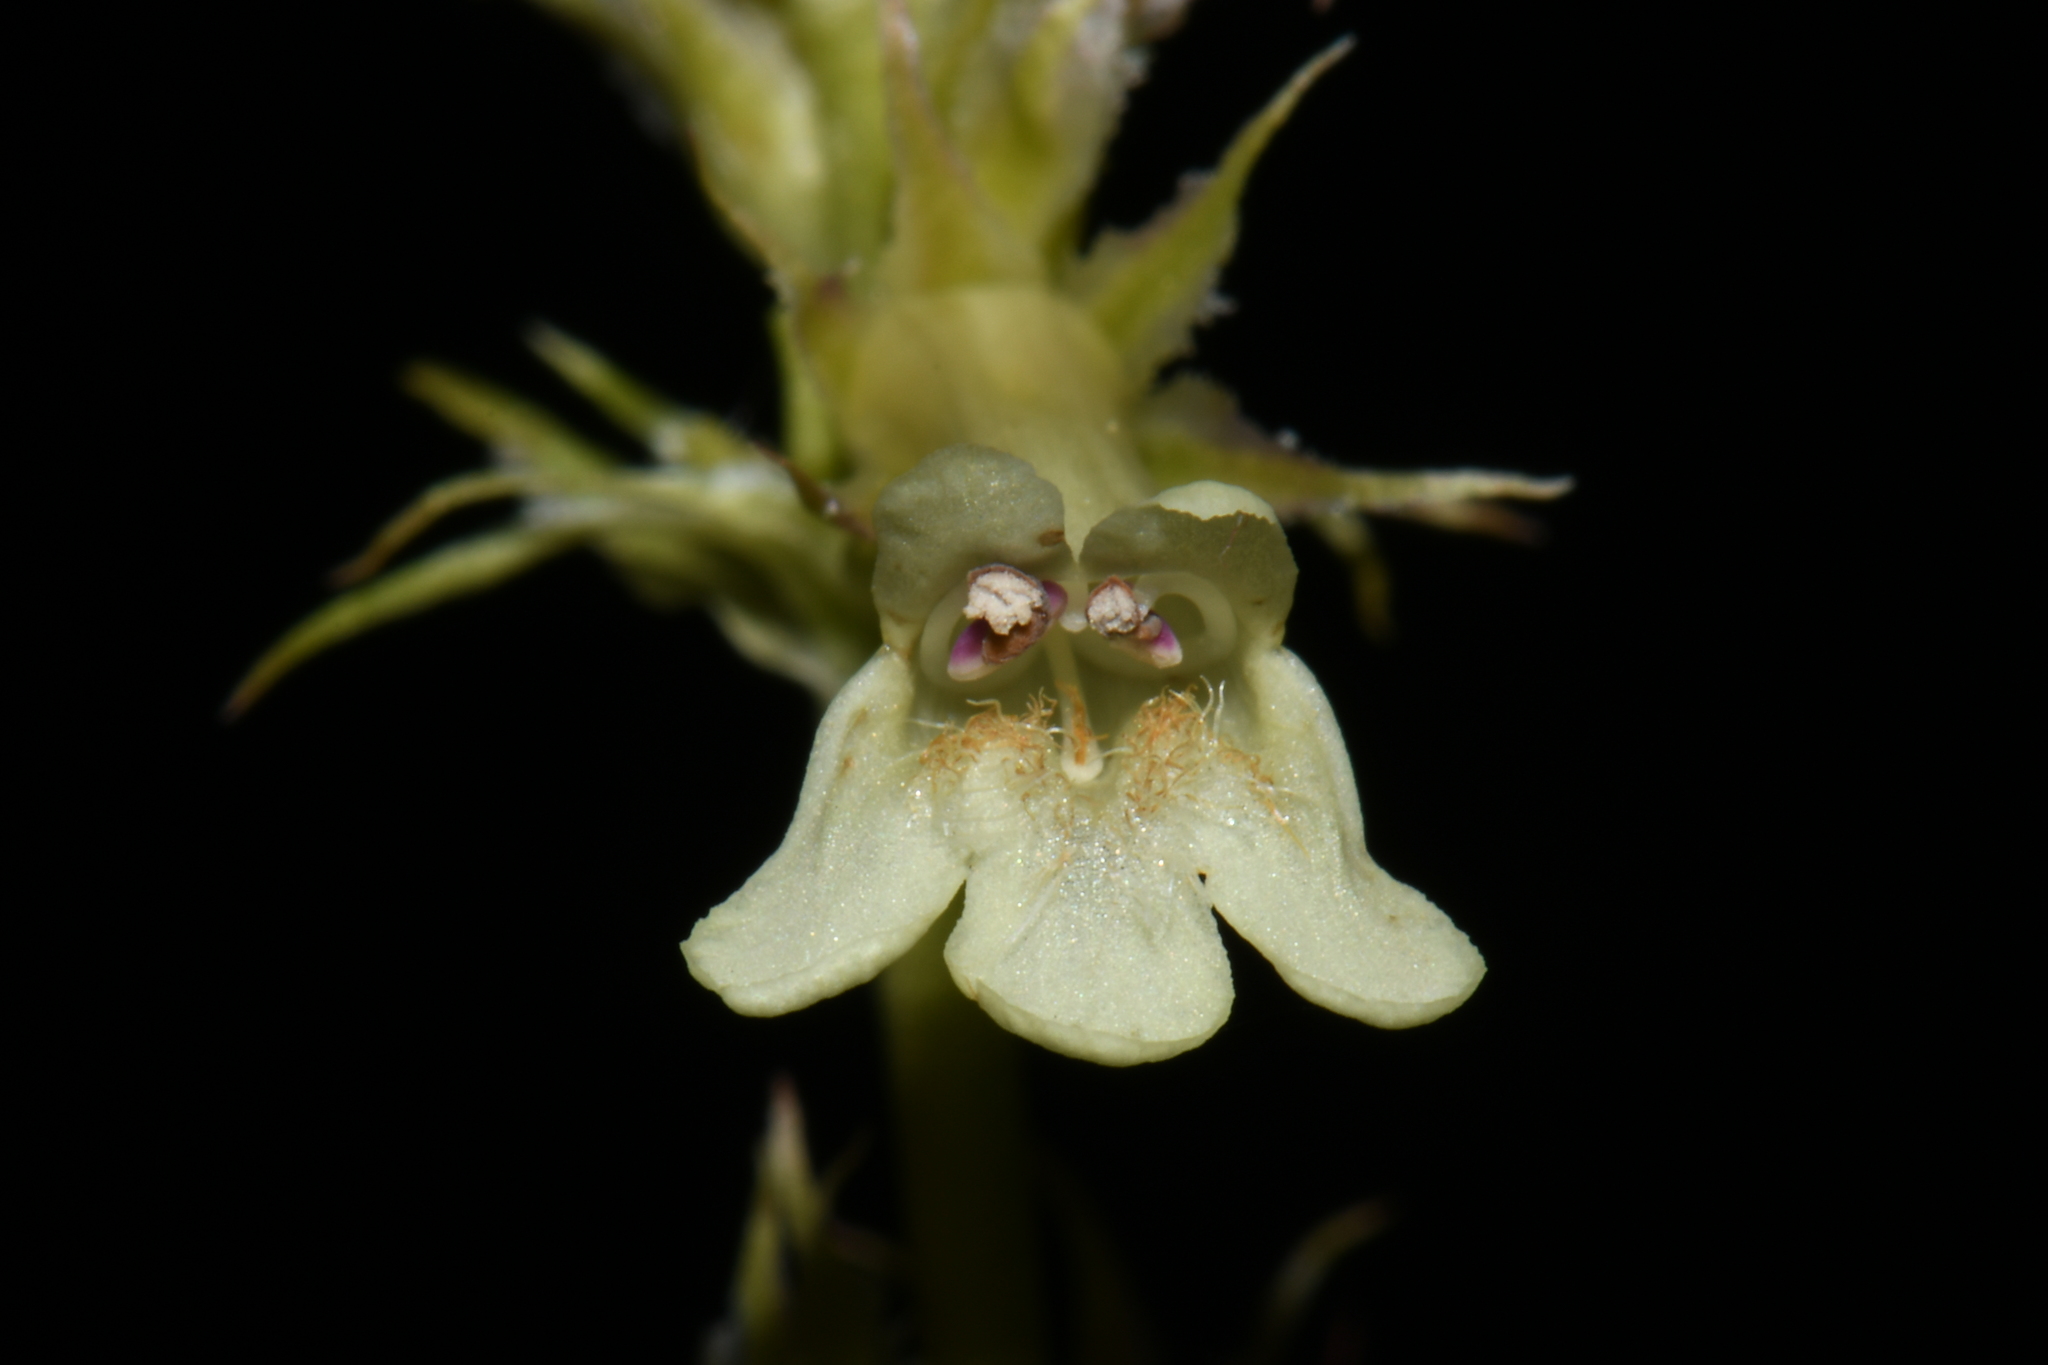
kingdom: Plantae
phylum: Tracheophyta
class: Magnoliopsida
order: Lamiales
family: Plantaginaceae
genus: Penstemon
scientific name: Penstemon confertus
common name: Lesser yellow beardtongue
